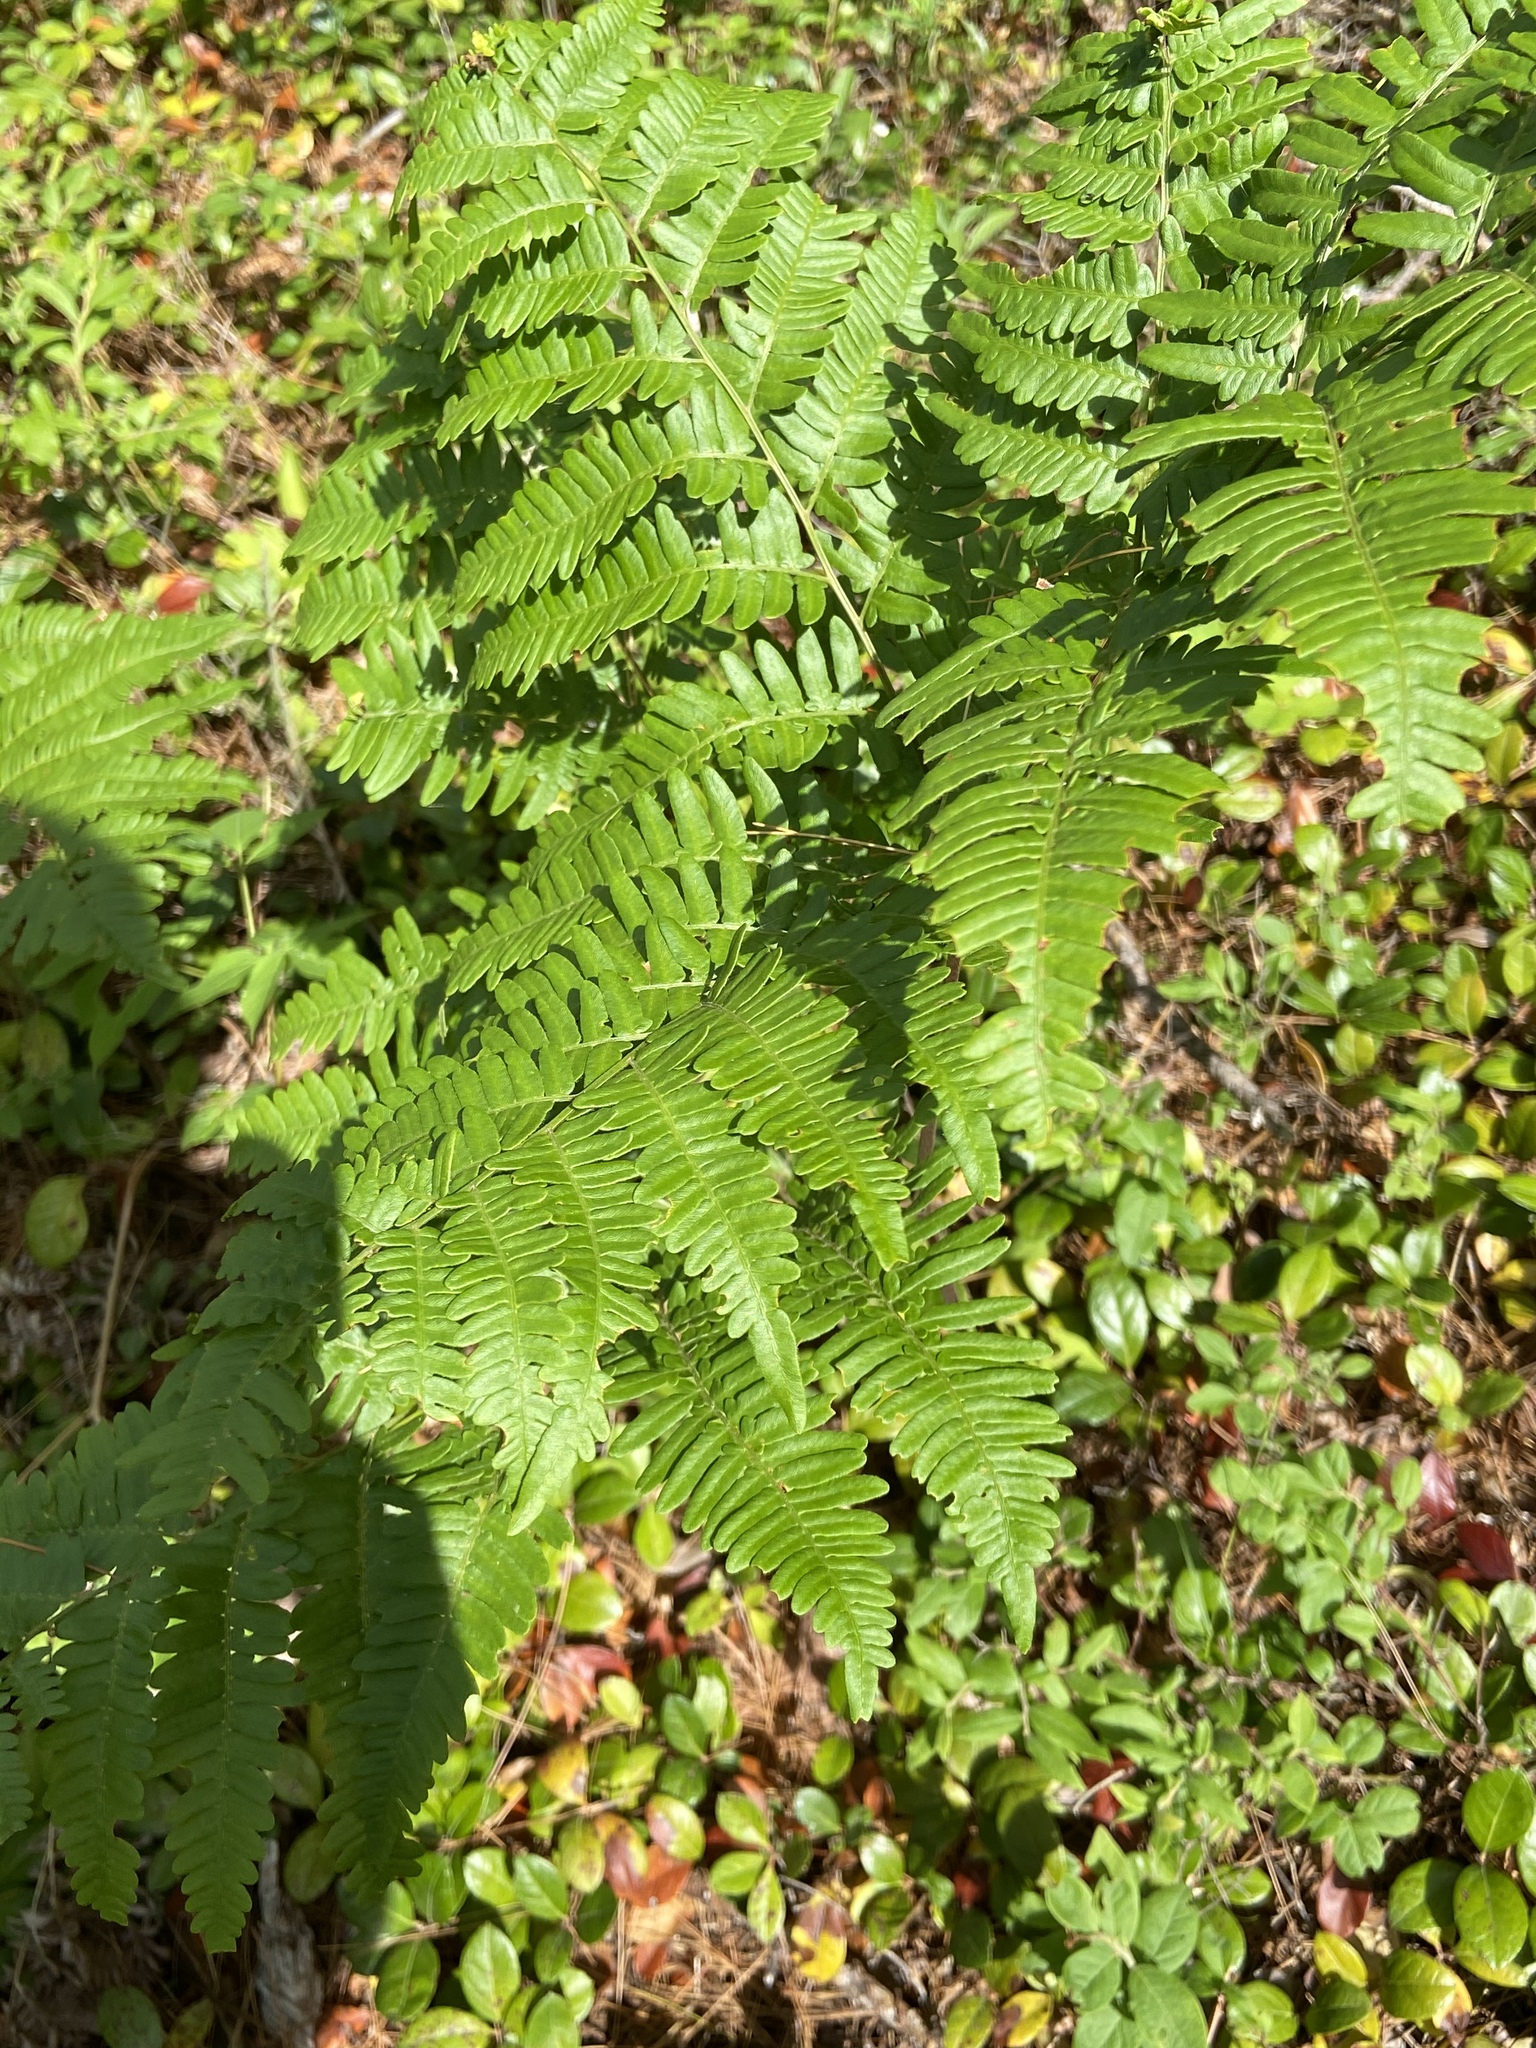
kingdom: Plantae
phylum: Tracheophyta
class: Polypodiopsida
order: Polypodiales
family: Dennstaedtiaceae
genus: Pteridium
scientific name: Pteridium aquilinum
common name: Bracken
